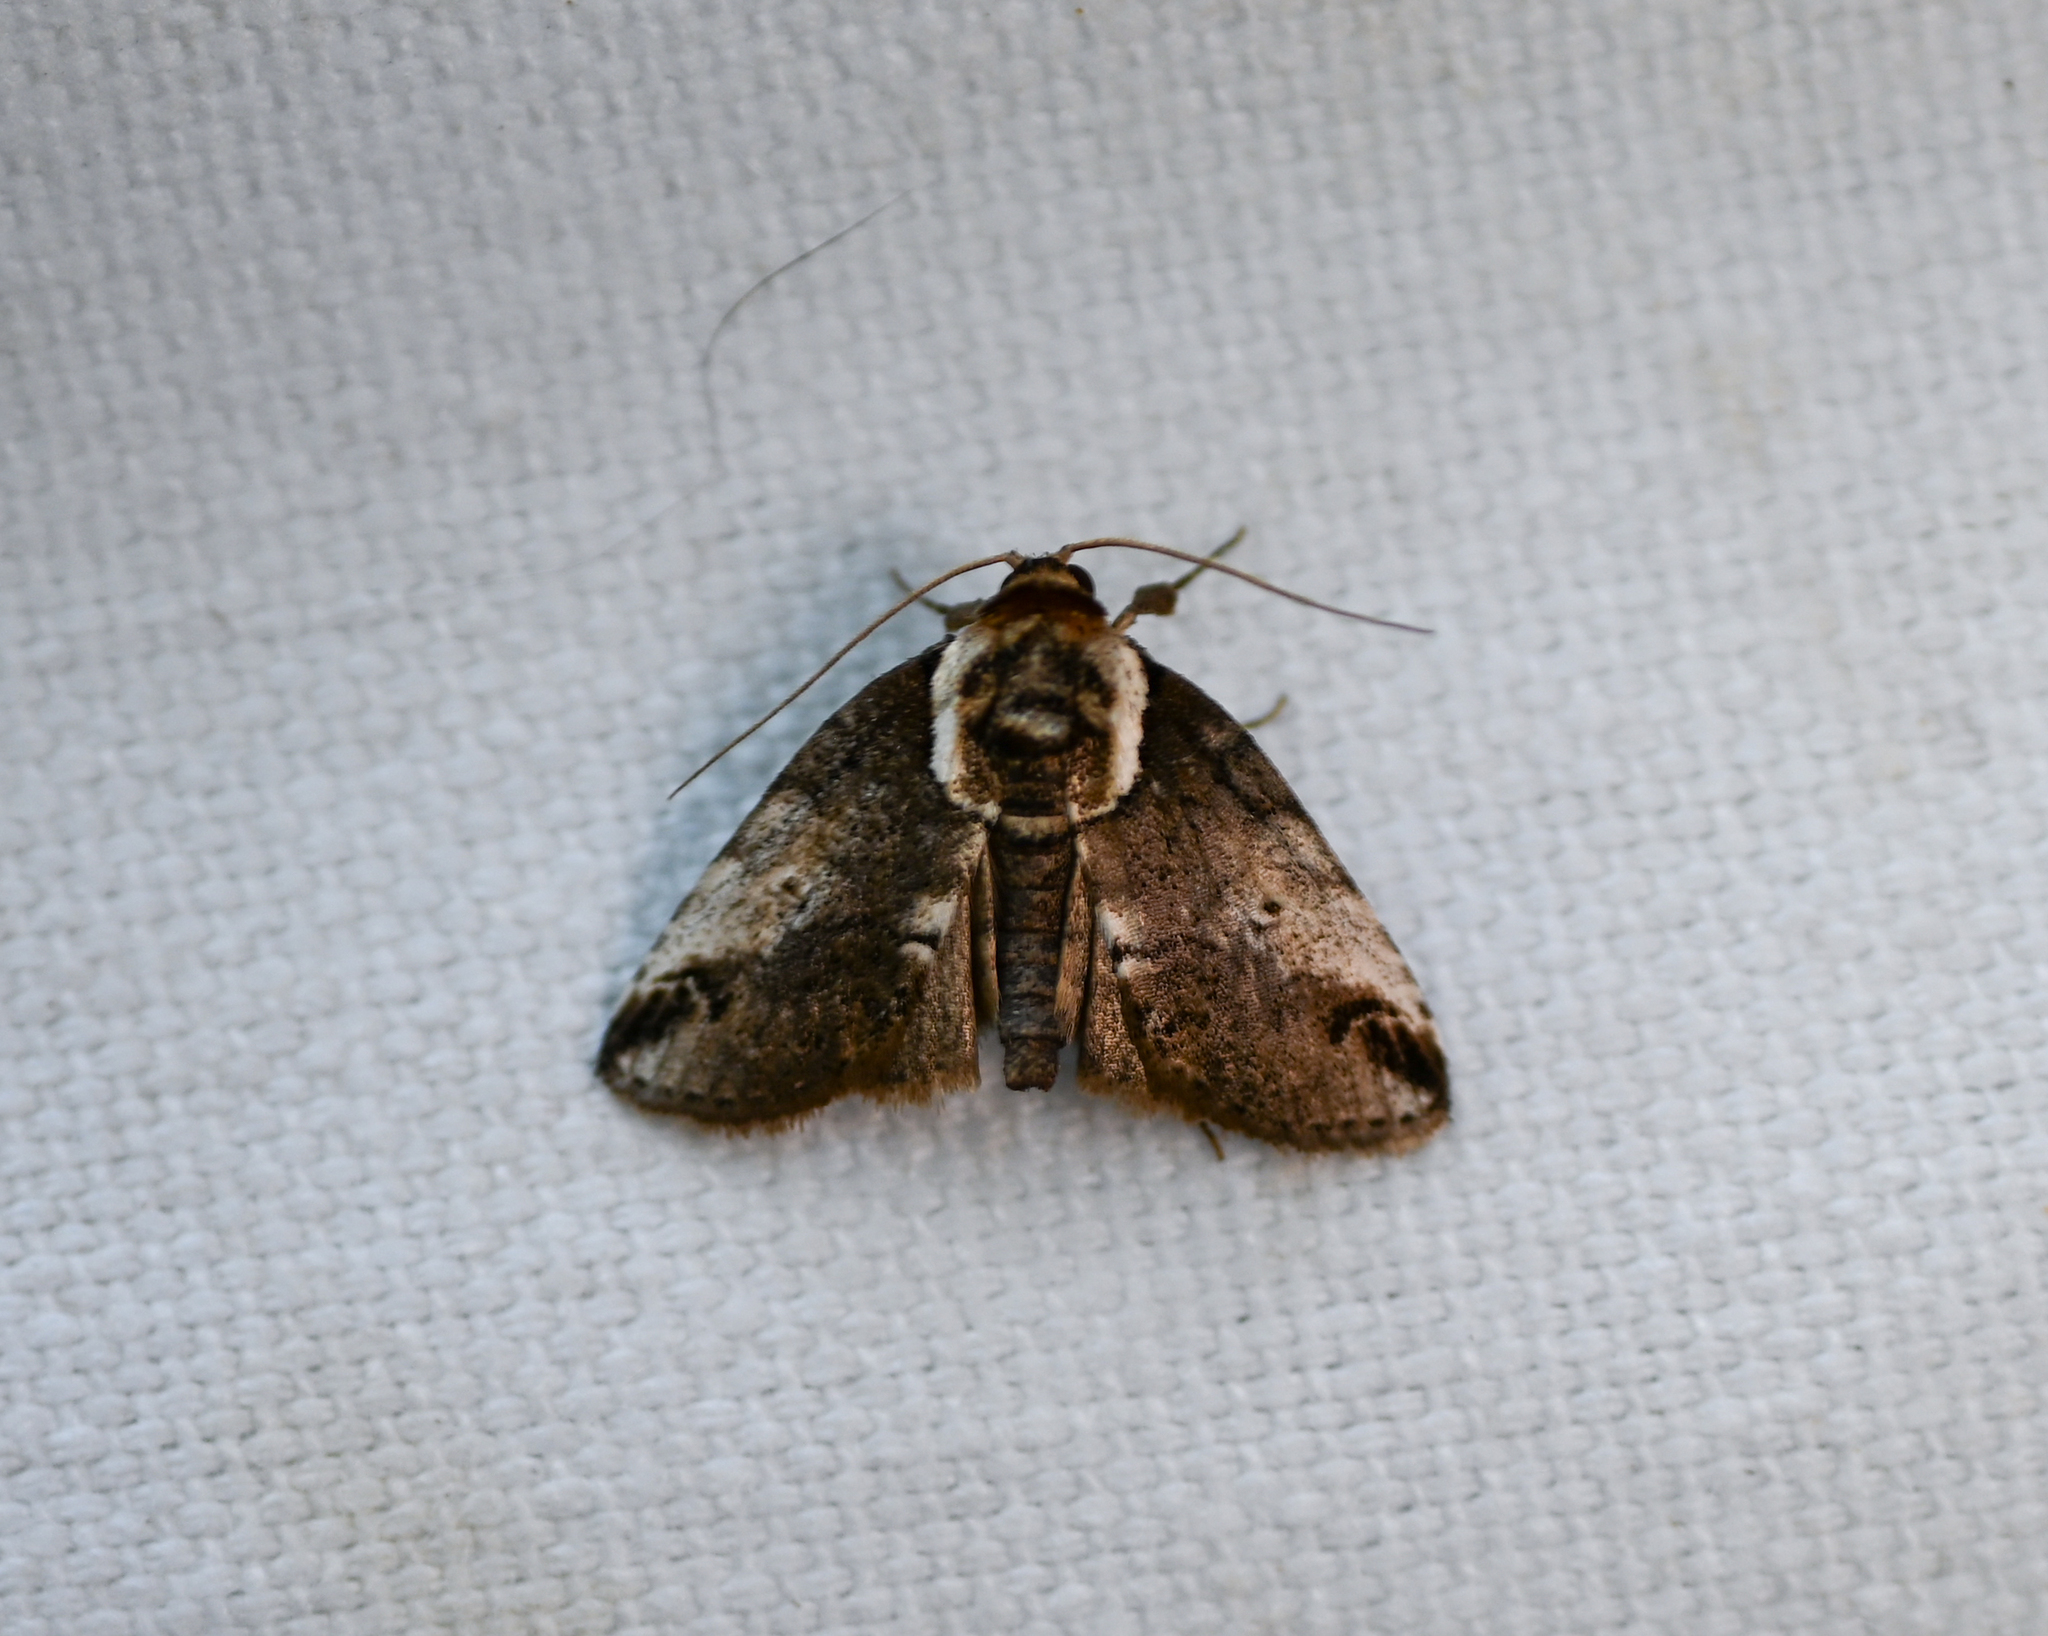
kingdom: Animalia
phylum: Arthropoda
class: Insecta
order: Lepidoptera
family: Nolidae
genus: Baileya
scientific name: Baileya ophthalmica
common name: Eyed baileya moth
